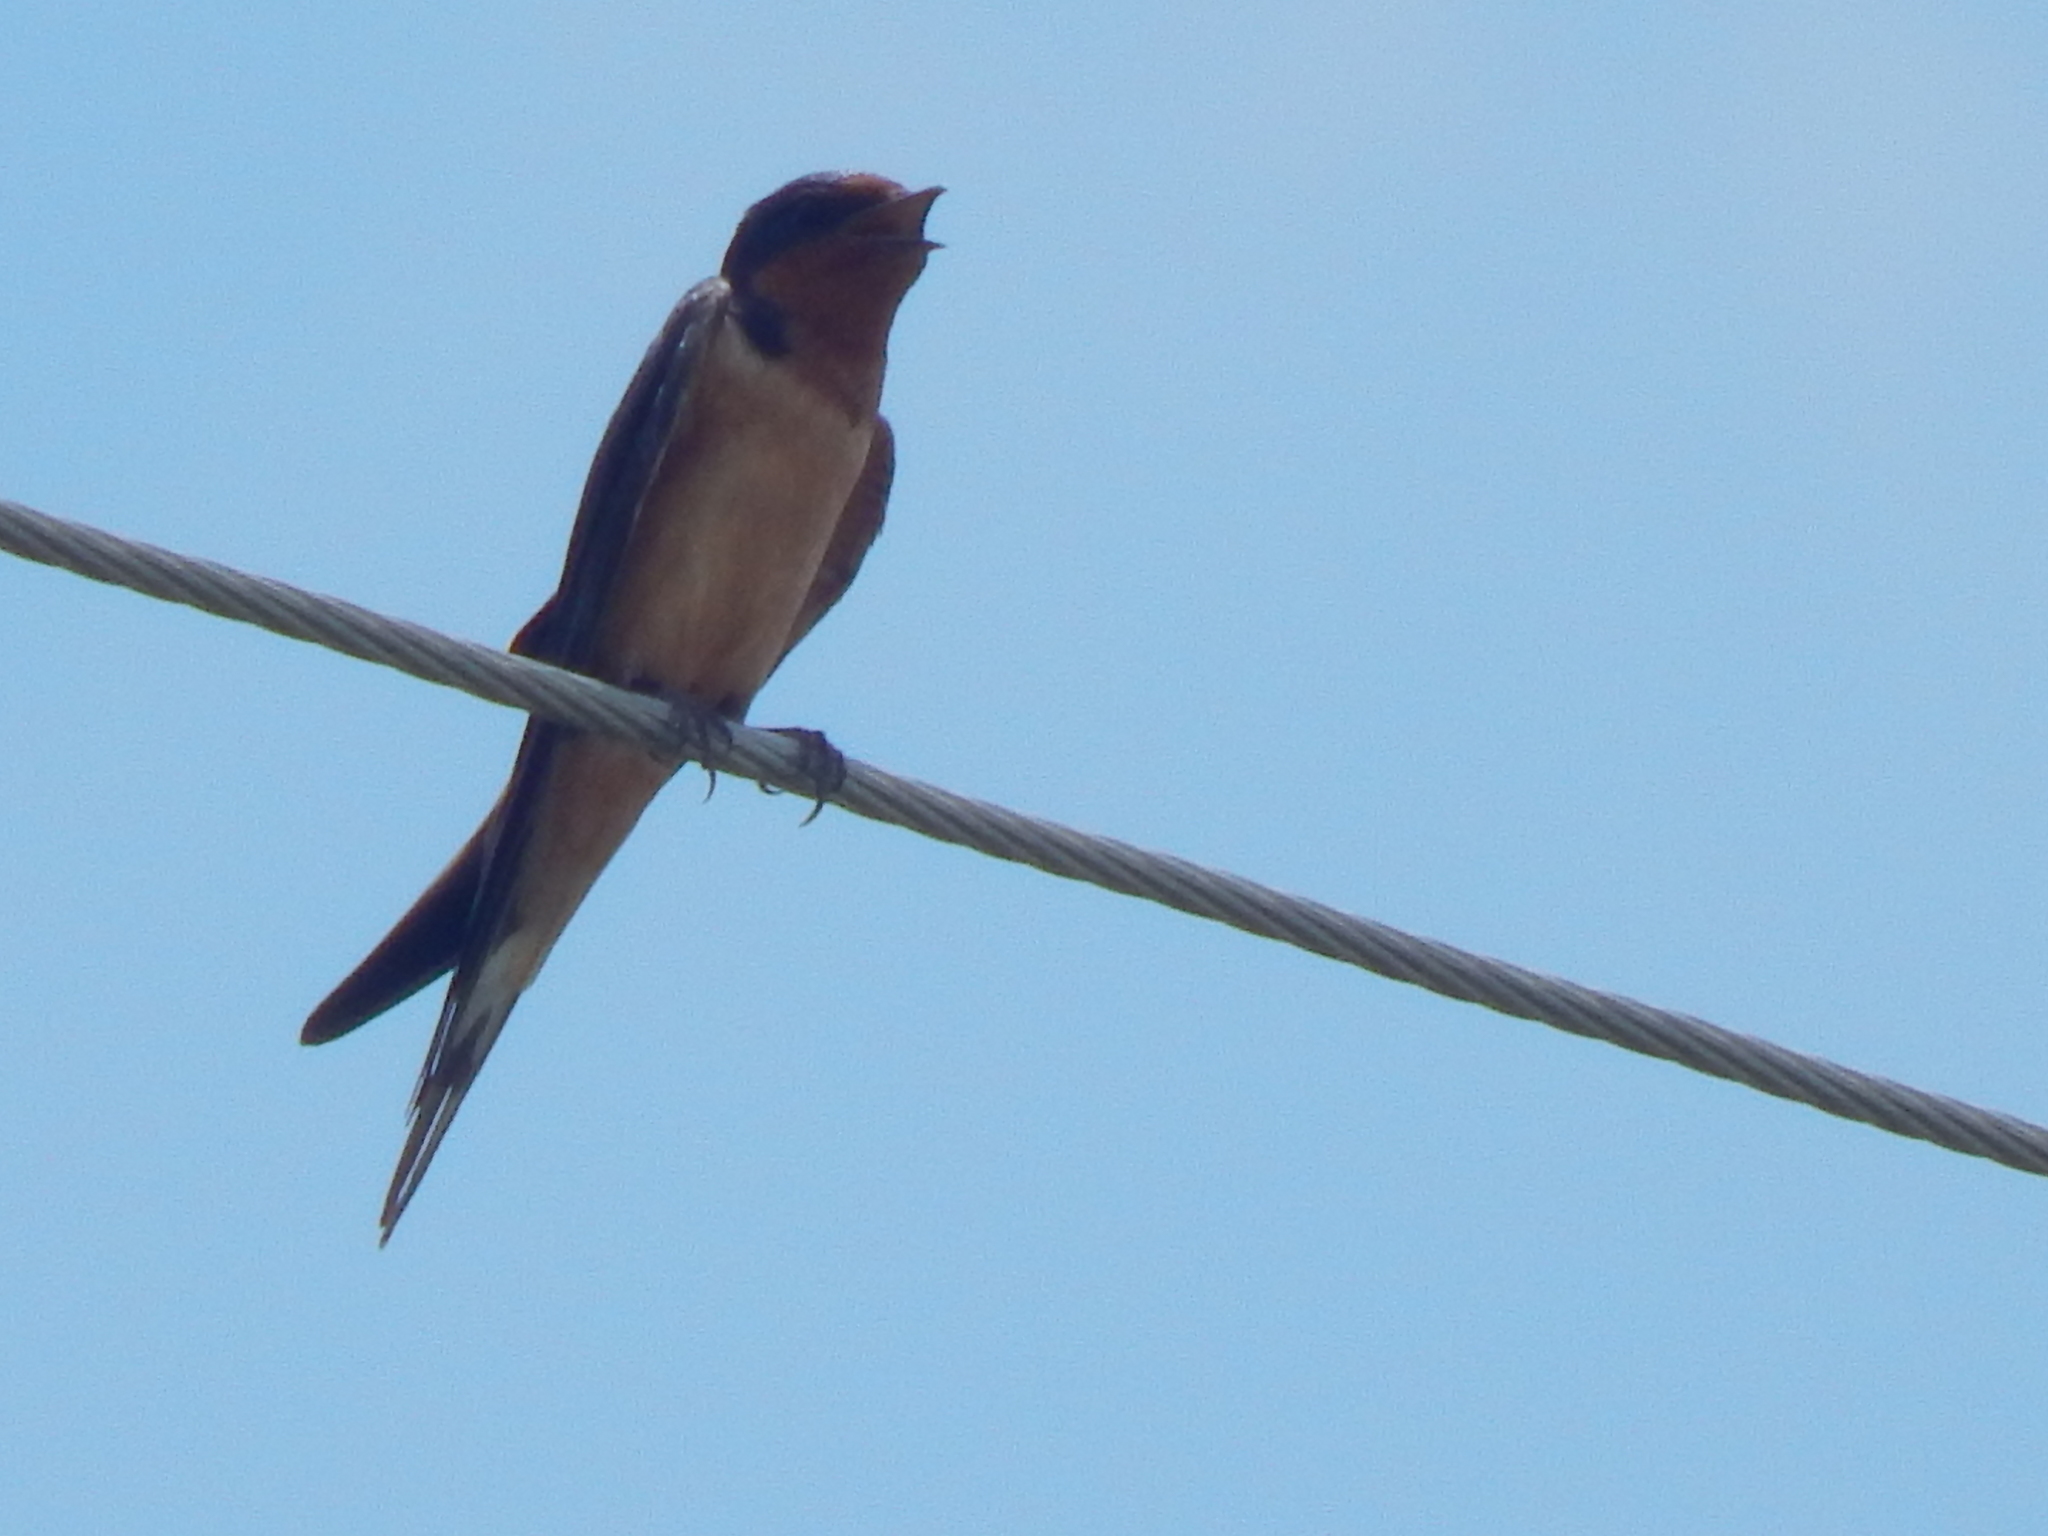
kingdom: Animalia
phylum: Chordata
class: Aves
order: Passeriformes
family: Hirundinidae
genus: Hirundo
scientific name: Hirundo rustica
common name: Barn swallow
